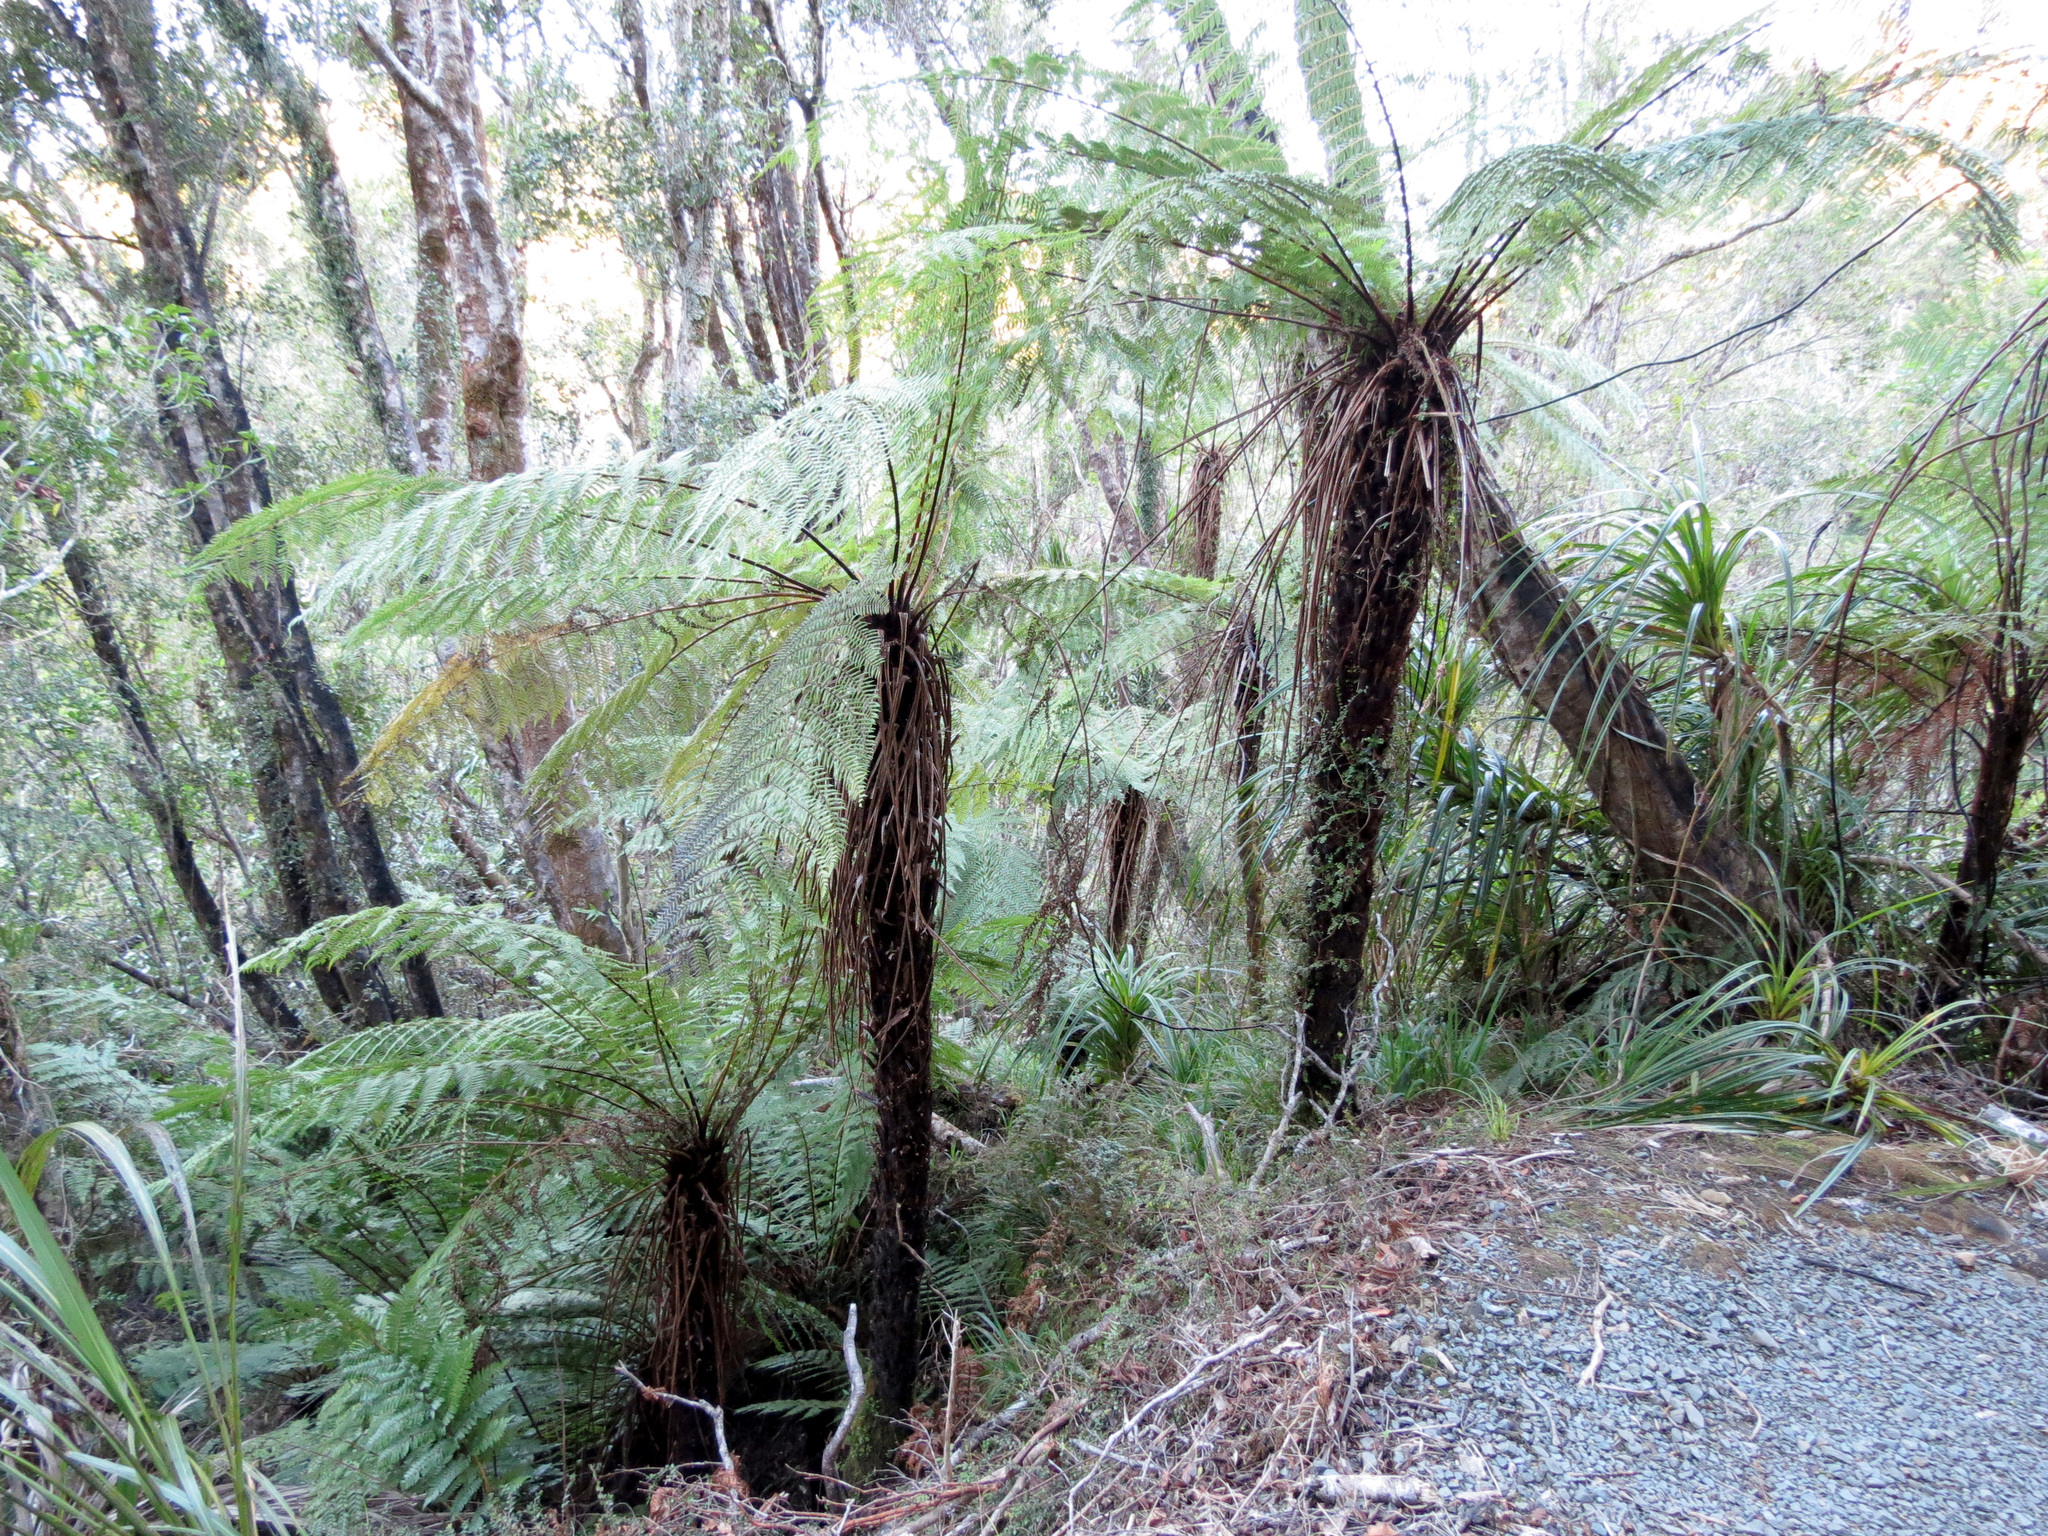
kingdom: Plantae
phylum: Tracheophyta
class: Polypodiopsida
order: Cyatheales
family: Cyatheaceae
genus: Alsophila
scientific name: Alsophila smithii
